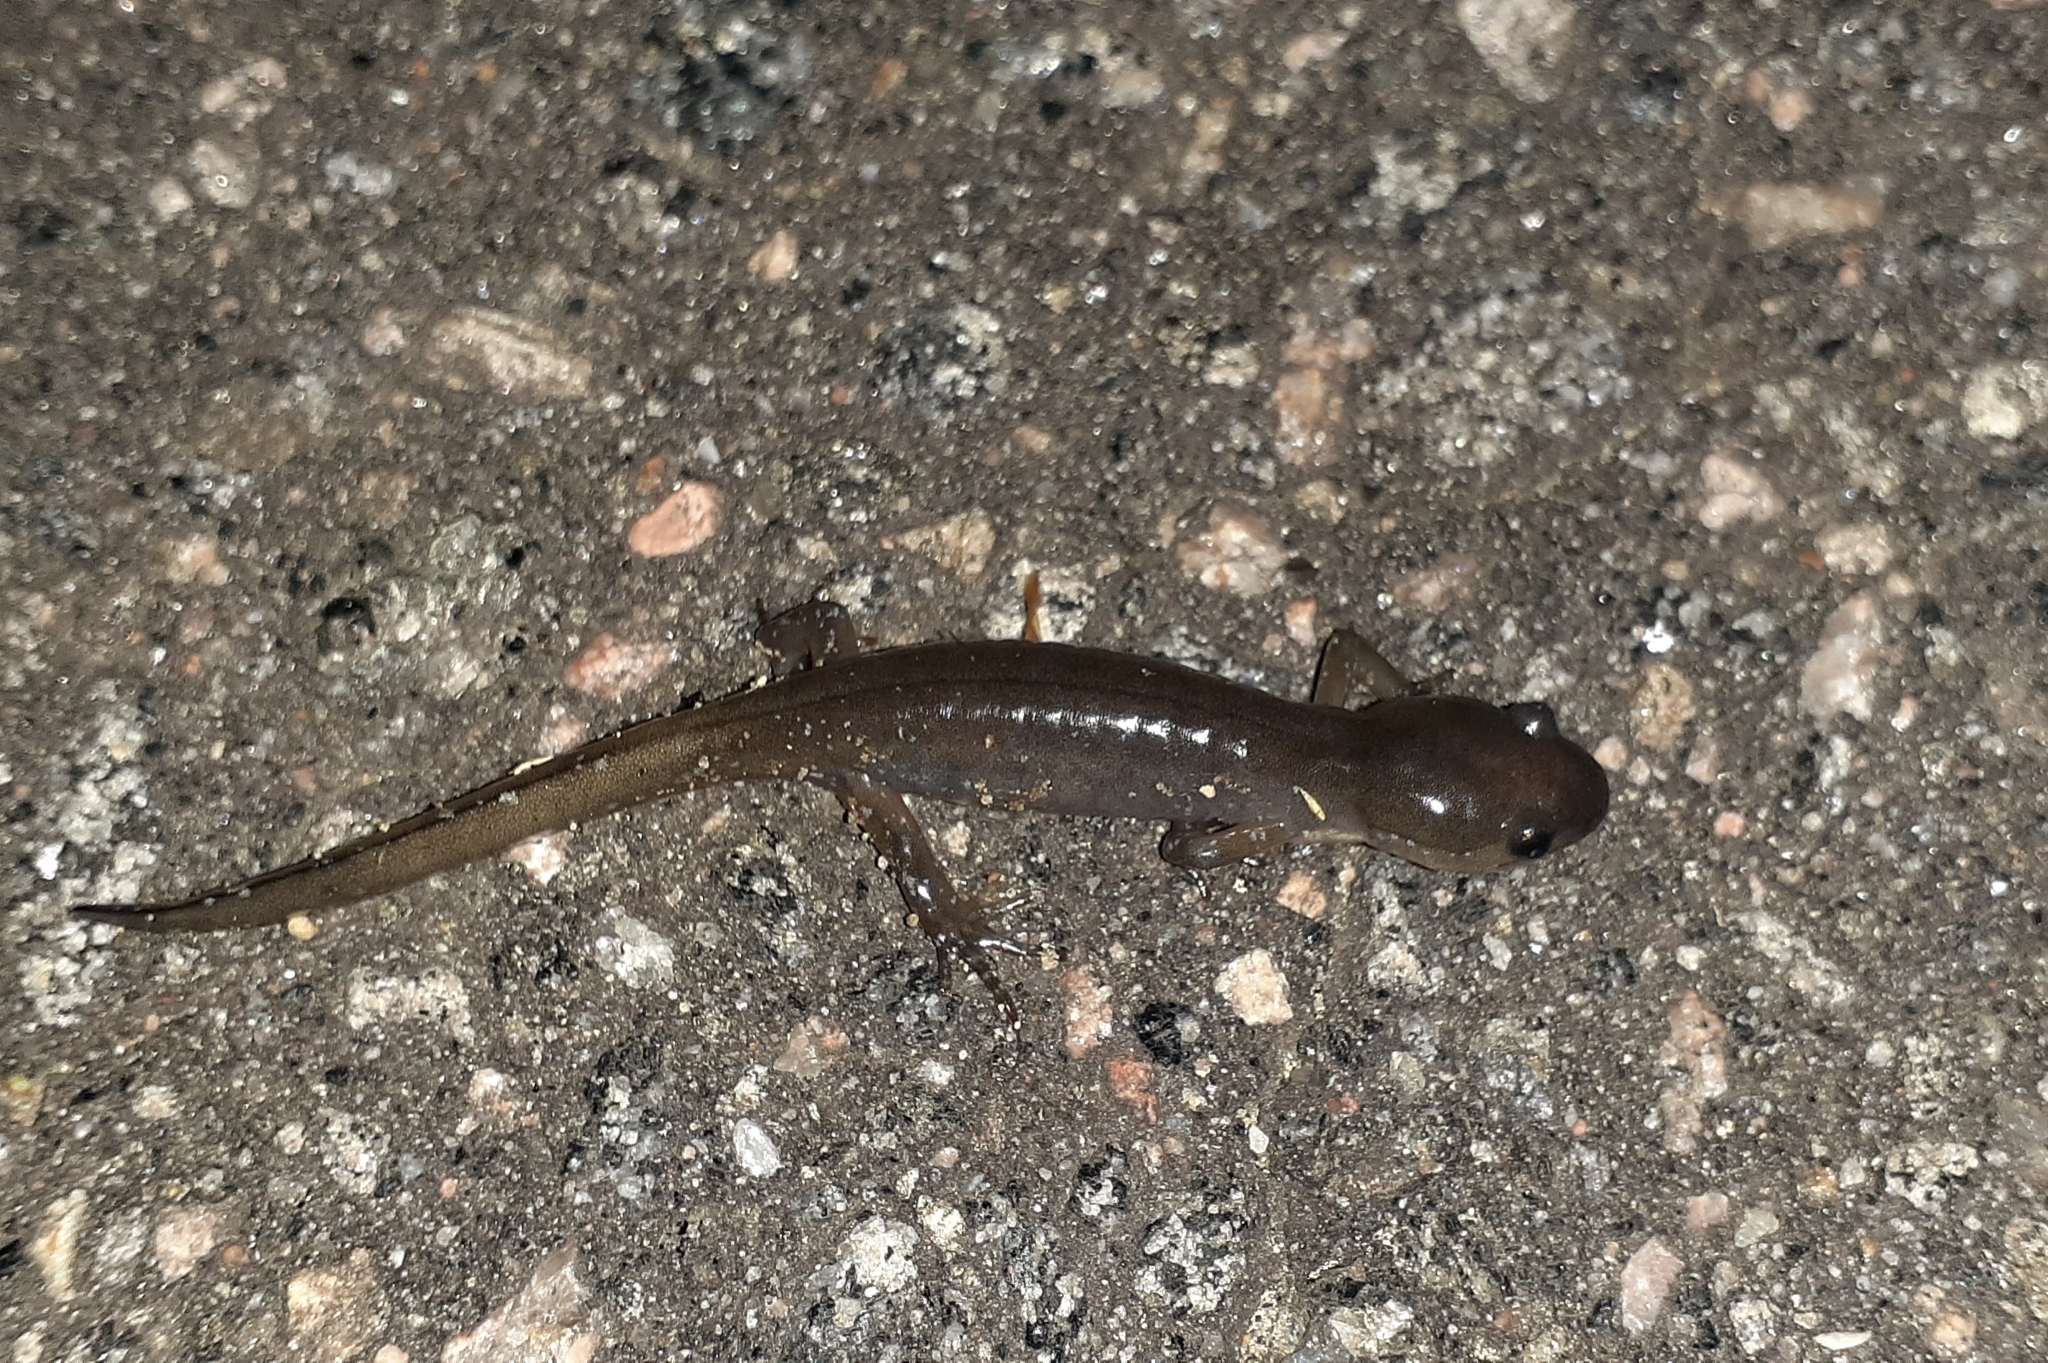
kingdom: Animalia
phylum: Chordata
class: Amphibia
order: Caudata
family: Ambystomatidae
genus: Ambystoma
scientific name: Ambystoma unisexual
